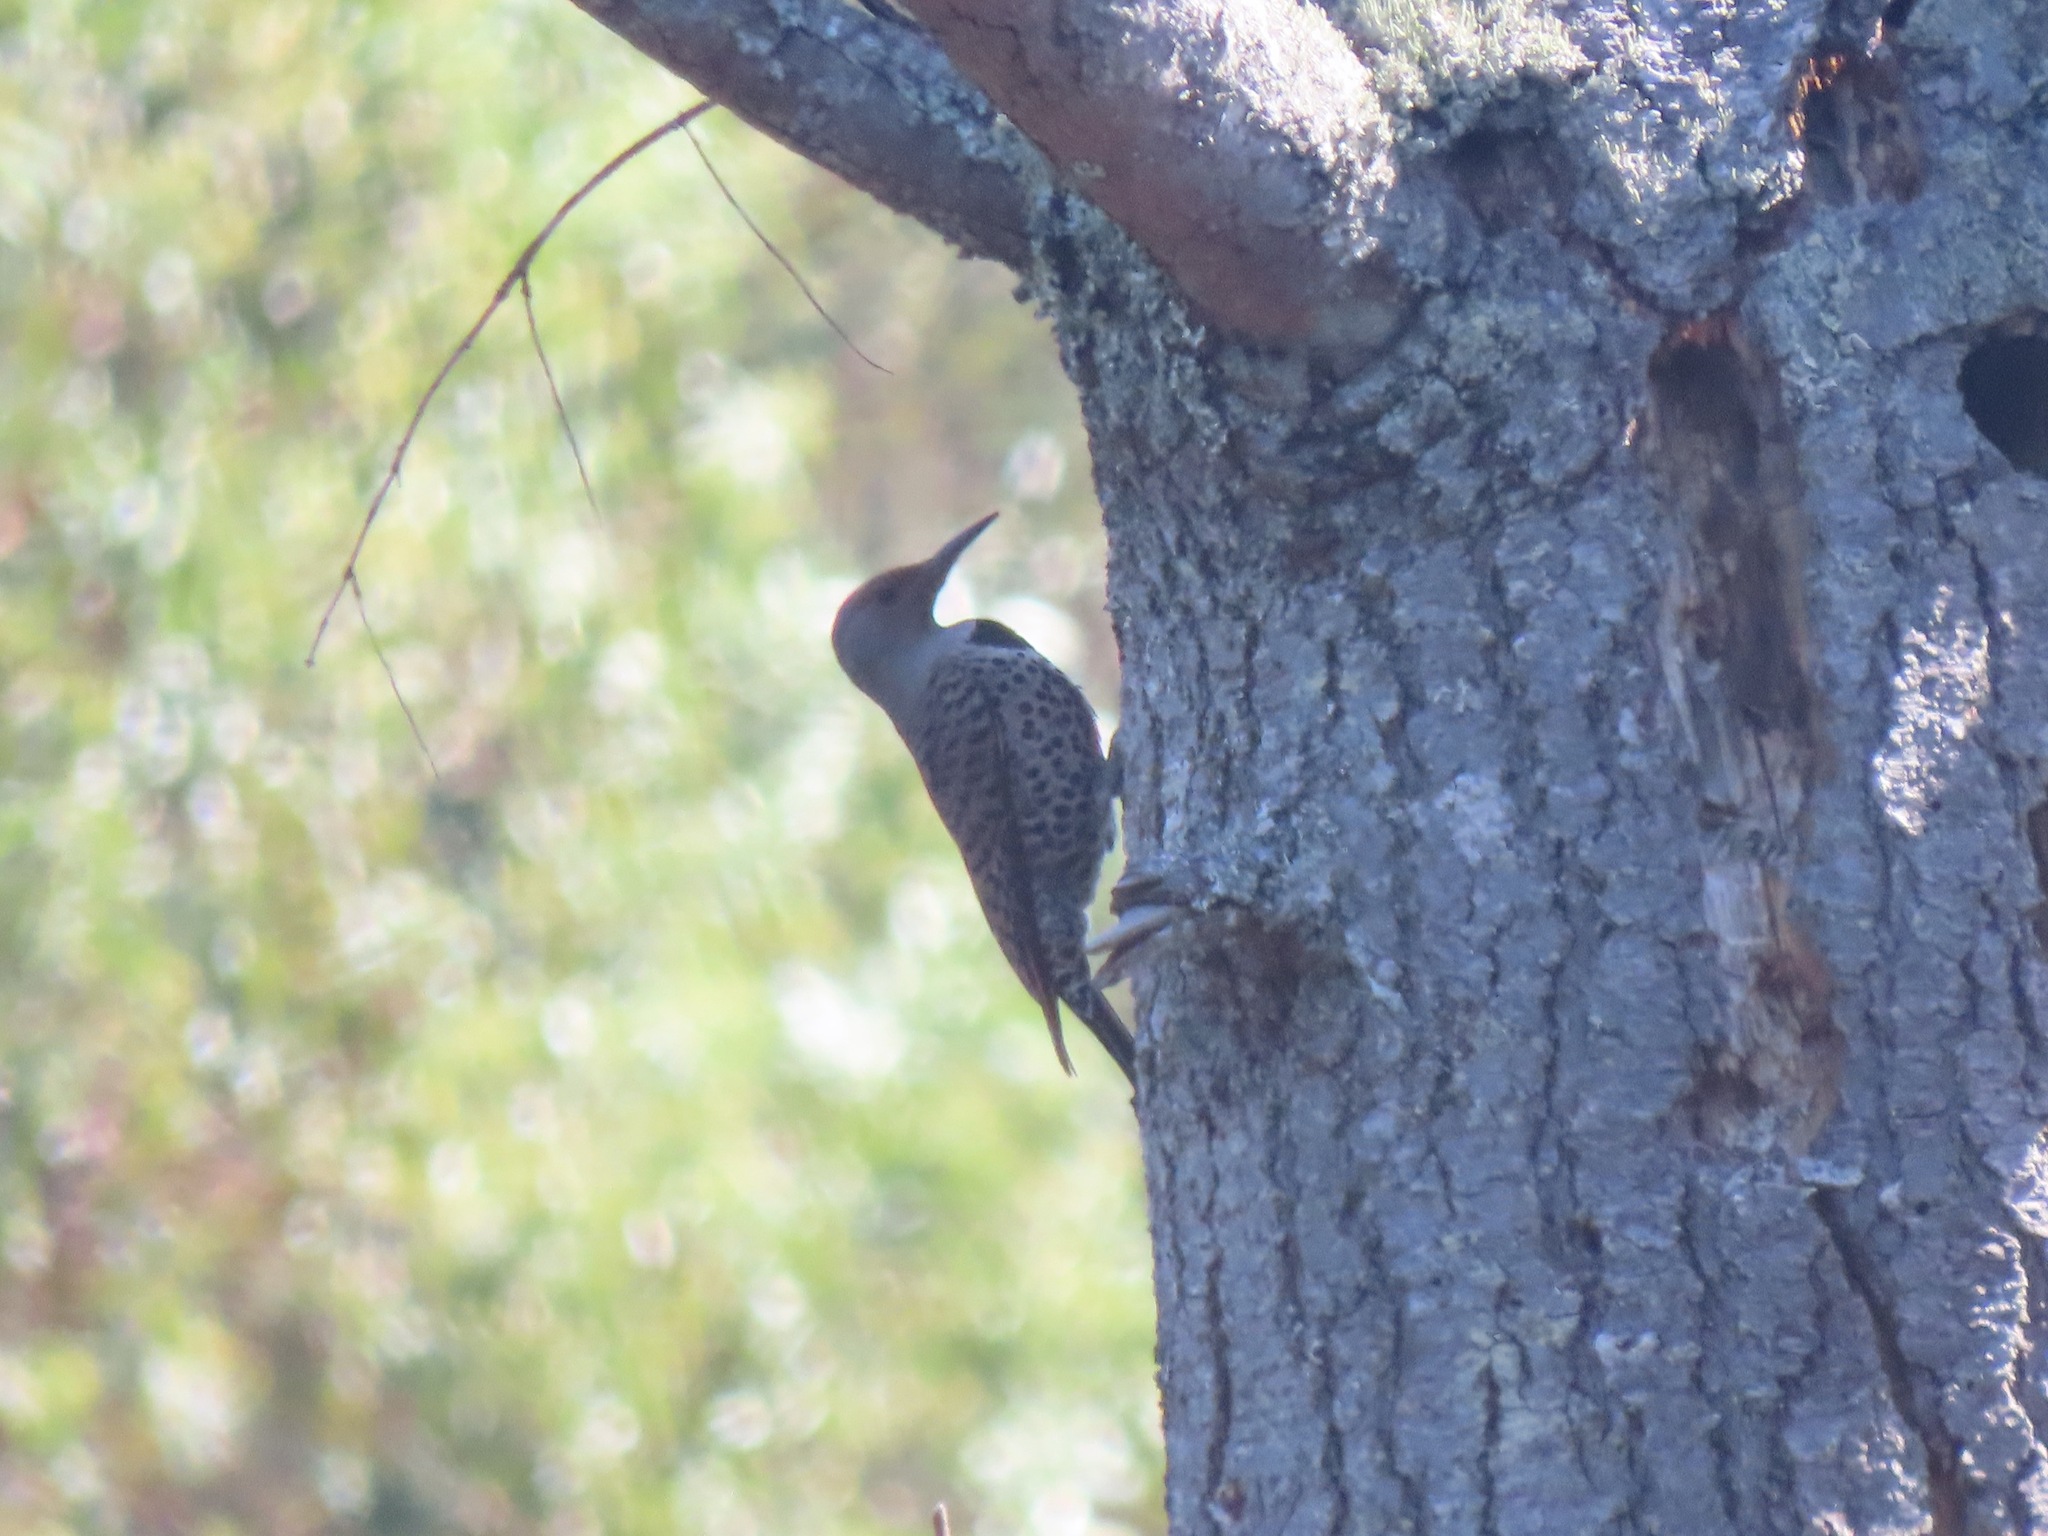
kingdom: Animalia
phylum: Chordata
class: Aves
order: Piciformes
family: Picidae
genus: Colaptes
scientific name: Colaptes auratus
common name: Northern flicker
